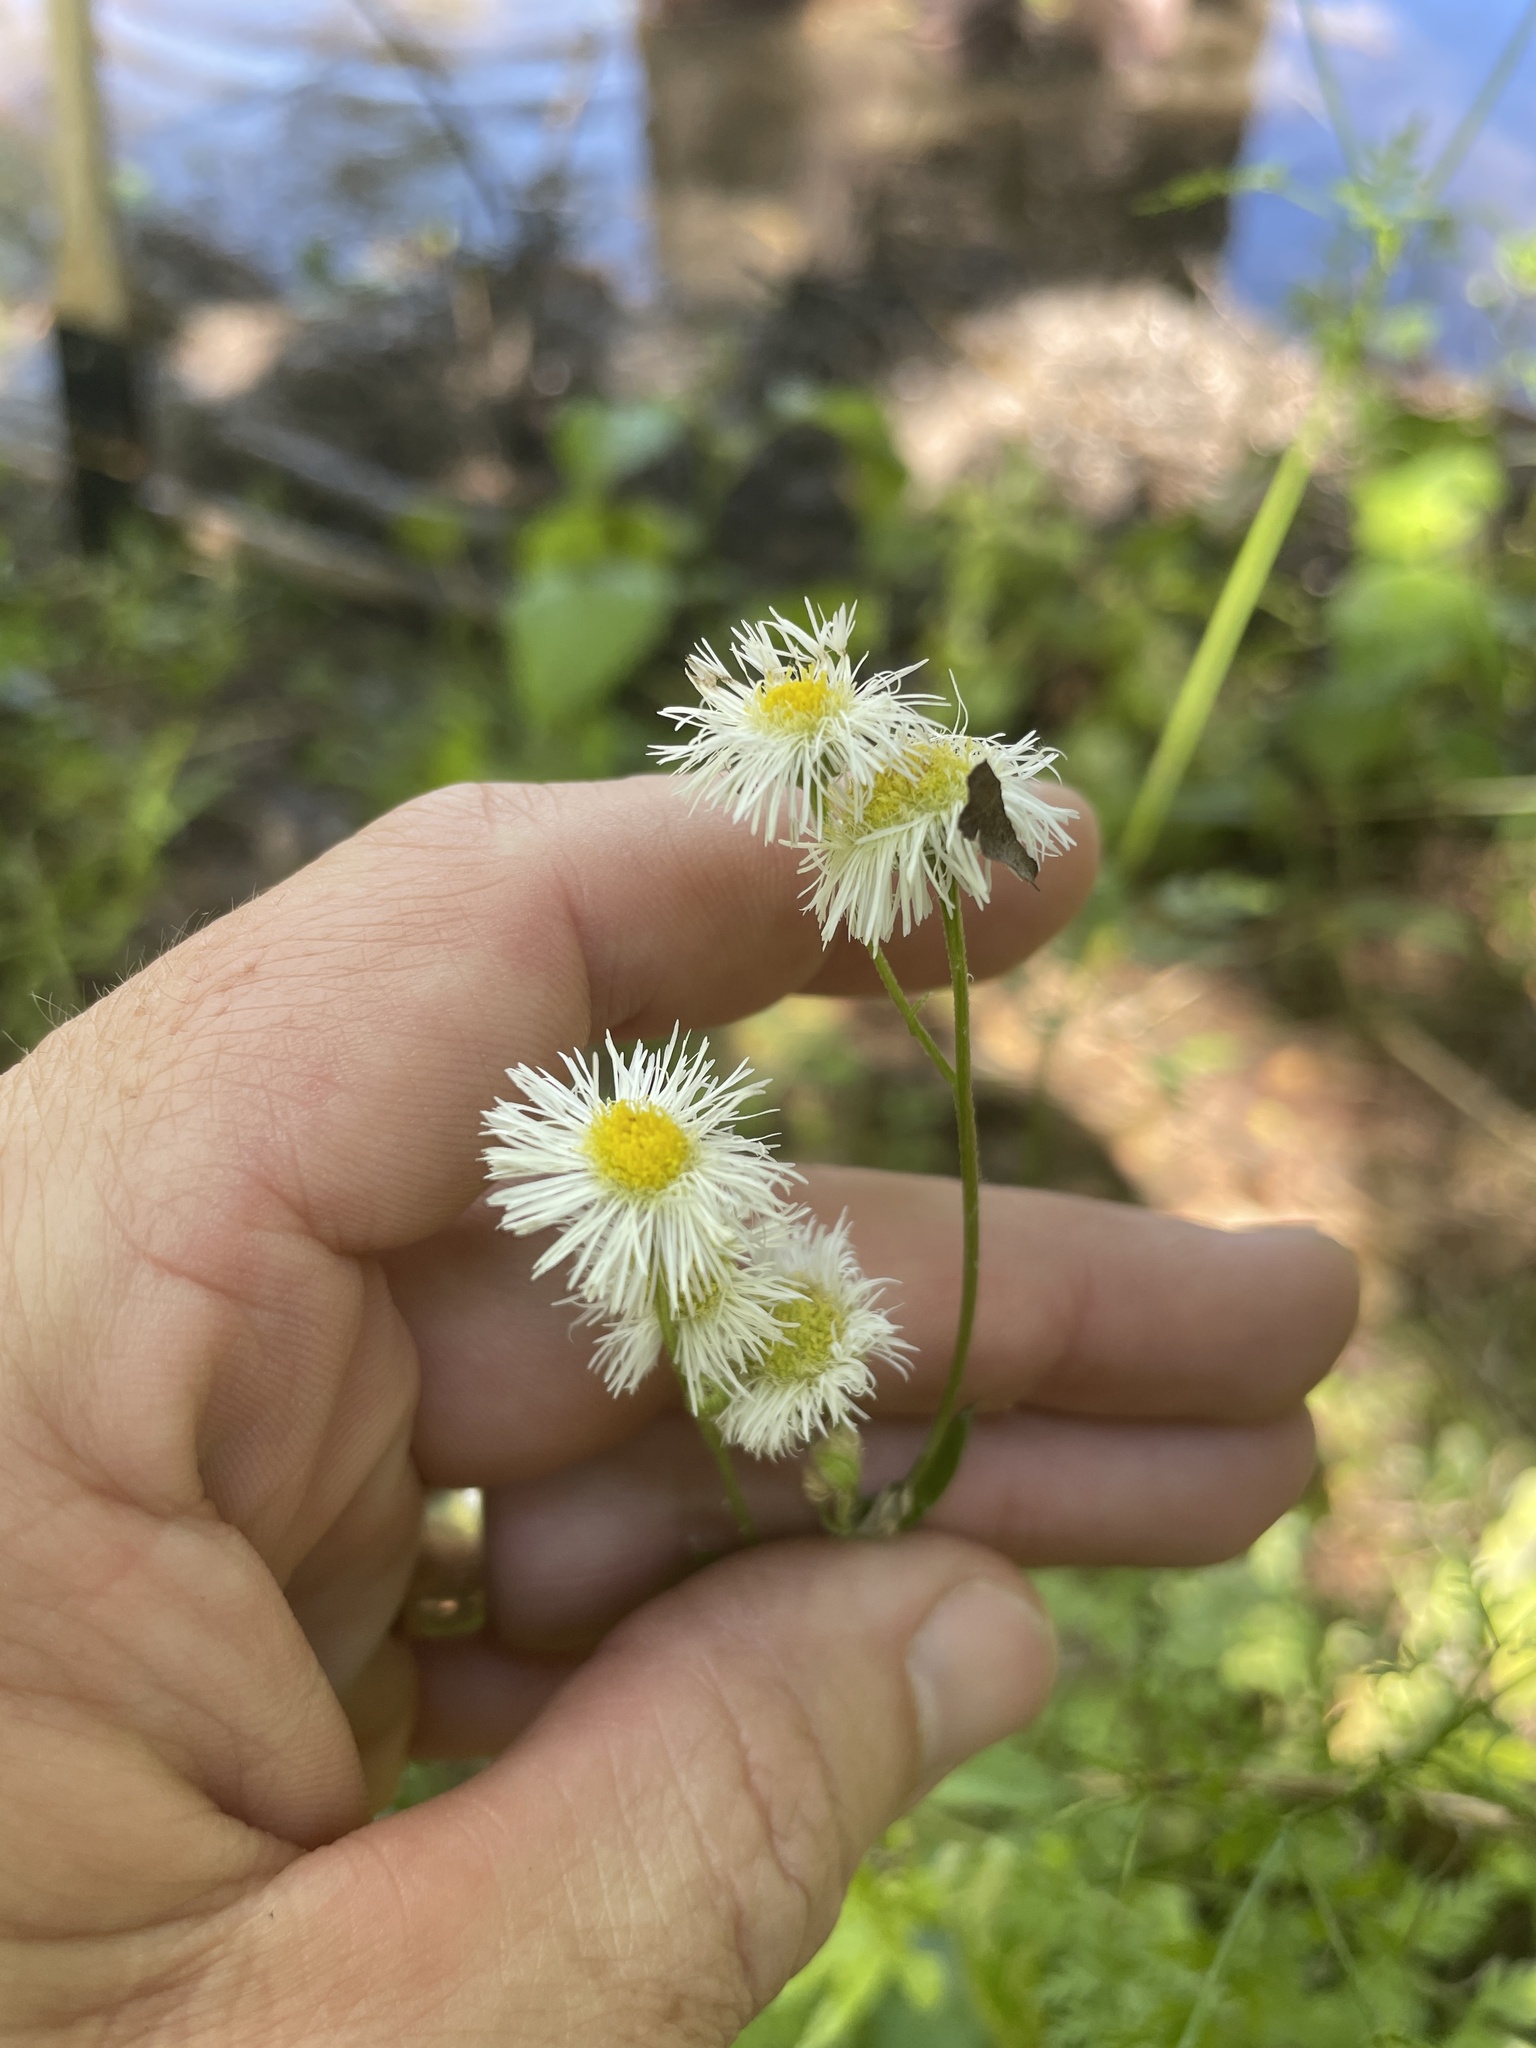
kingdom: Plantae
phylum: Tracheophyta
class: Magnoliopsida
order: Asterales
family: Asteraceae
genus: Erigeron
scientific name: Erigeron philadelphicus
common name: Robin's-plantain
